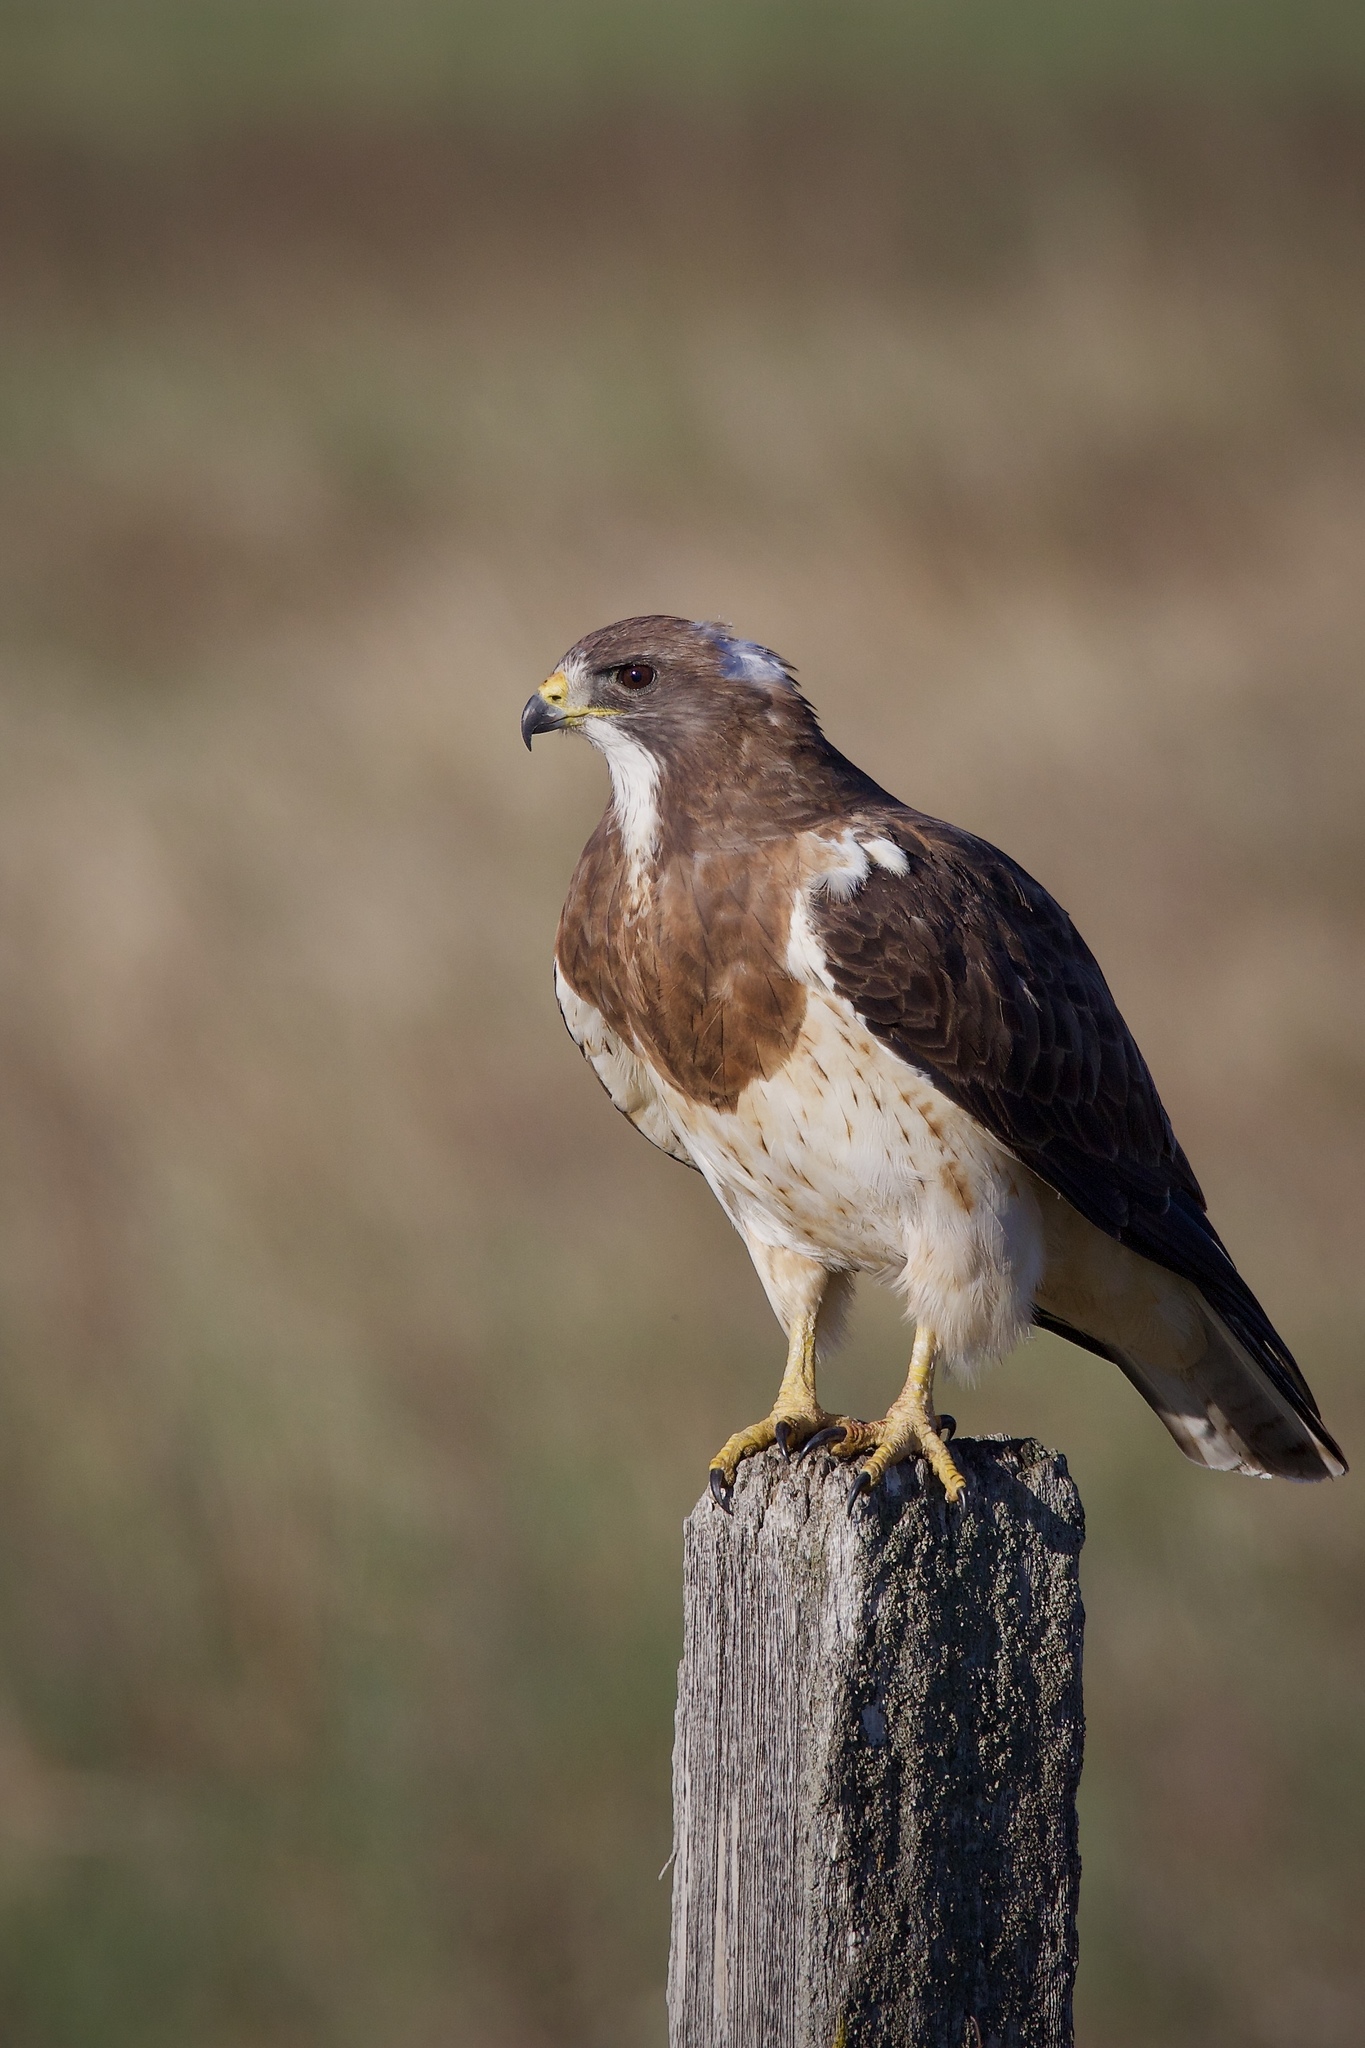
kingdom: Animalia
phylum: Chordata
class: Aves
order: Accipitriformes
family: Accipitridae
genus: Buteo
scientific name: Buteo swainsoni
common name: Swainson's hawk
